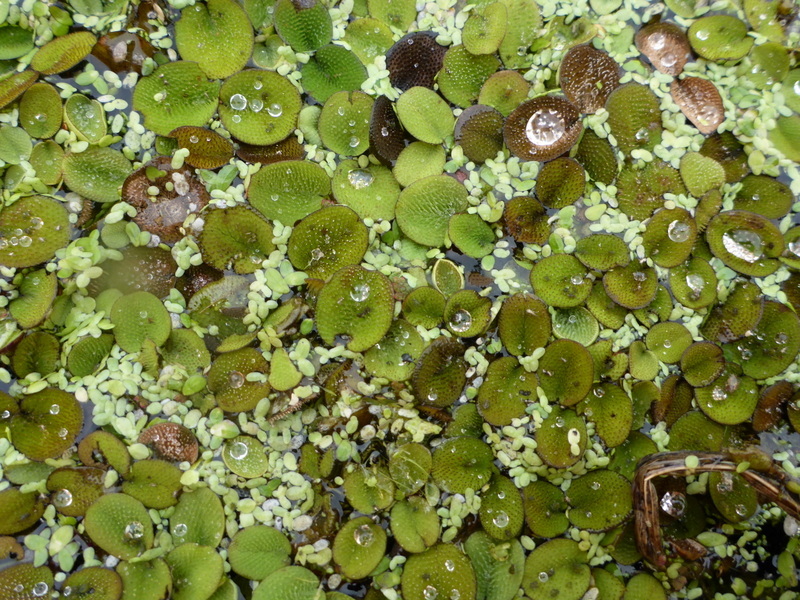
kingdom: Plantae
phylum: Tracheophyta
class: Polypodiopsida
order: Salviniales
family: Salviniaceae
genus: Salvinia
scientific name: Salvinia minima
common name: Water spangles
